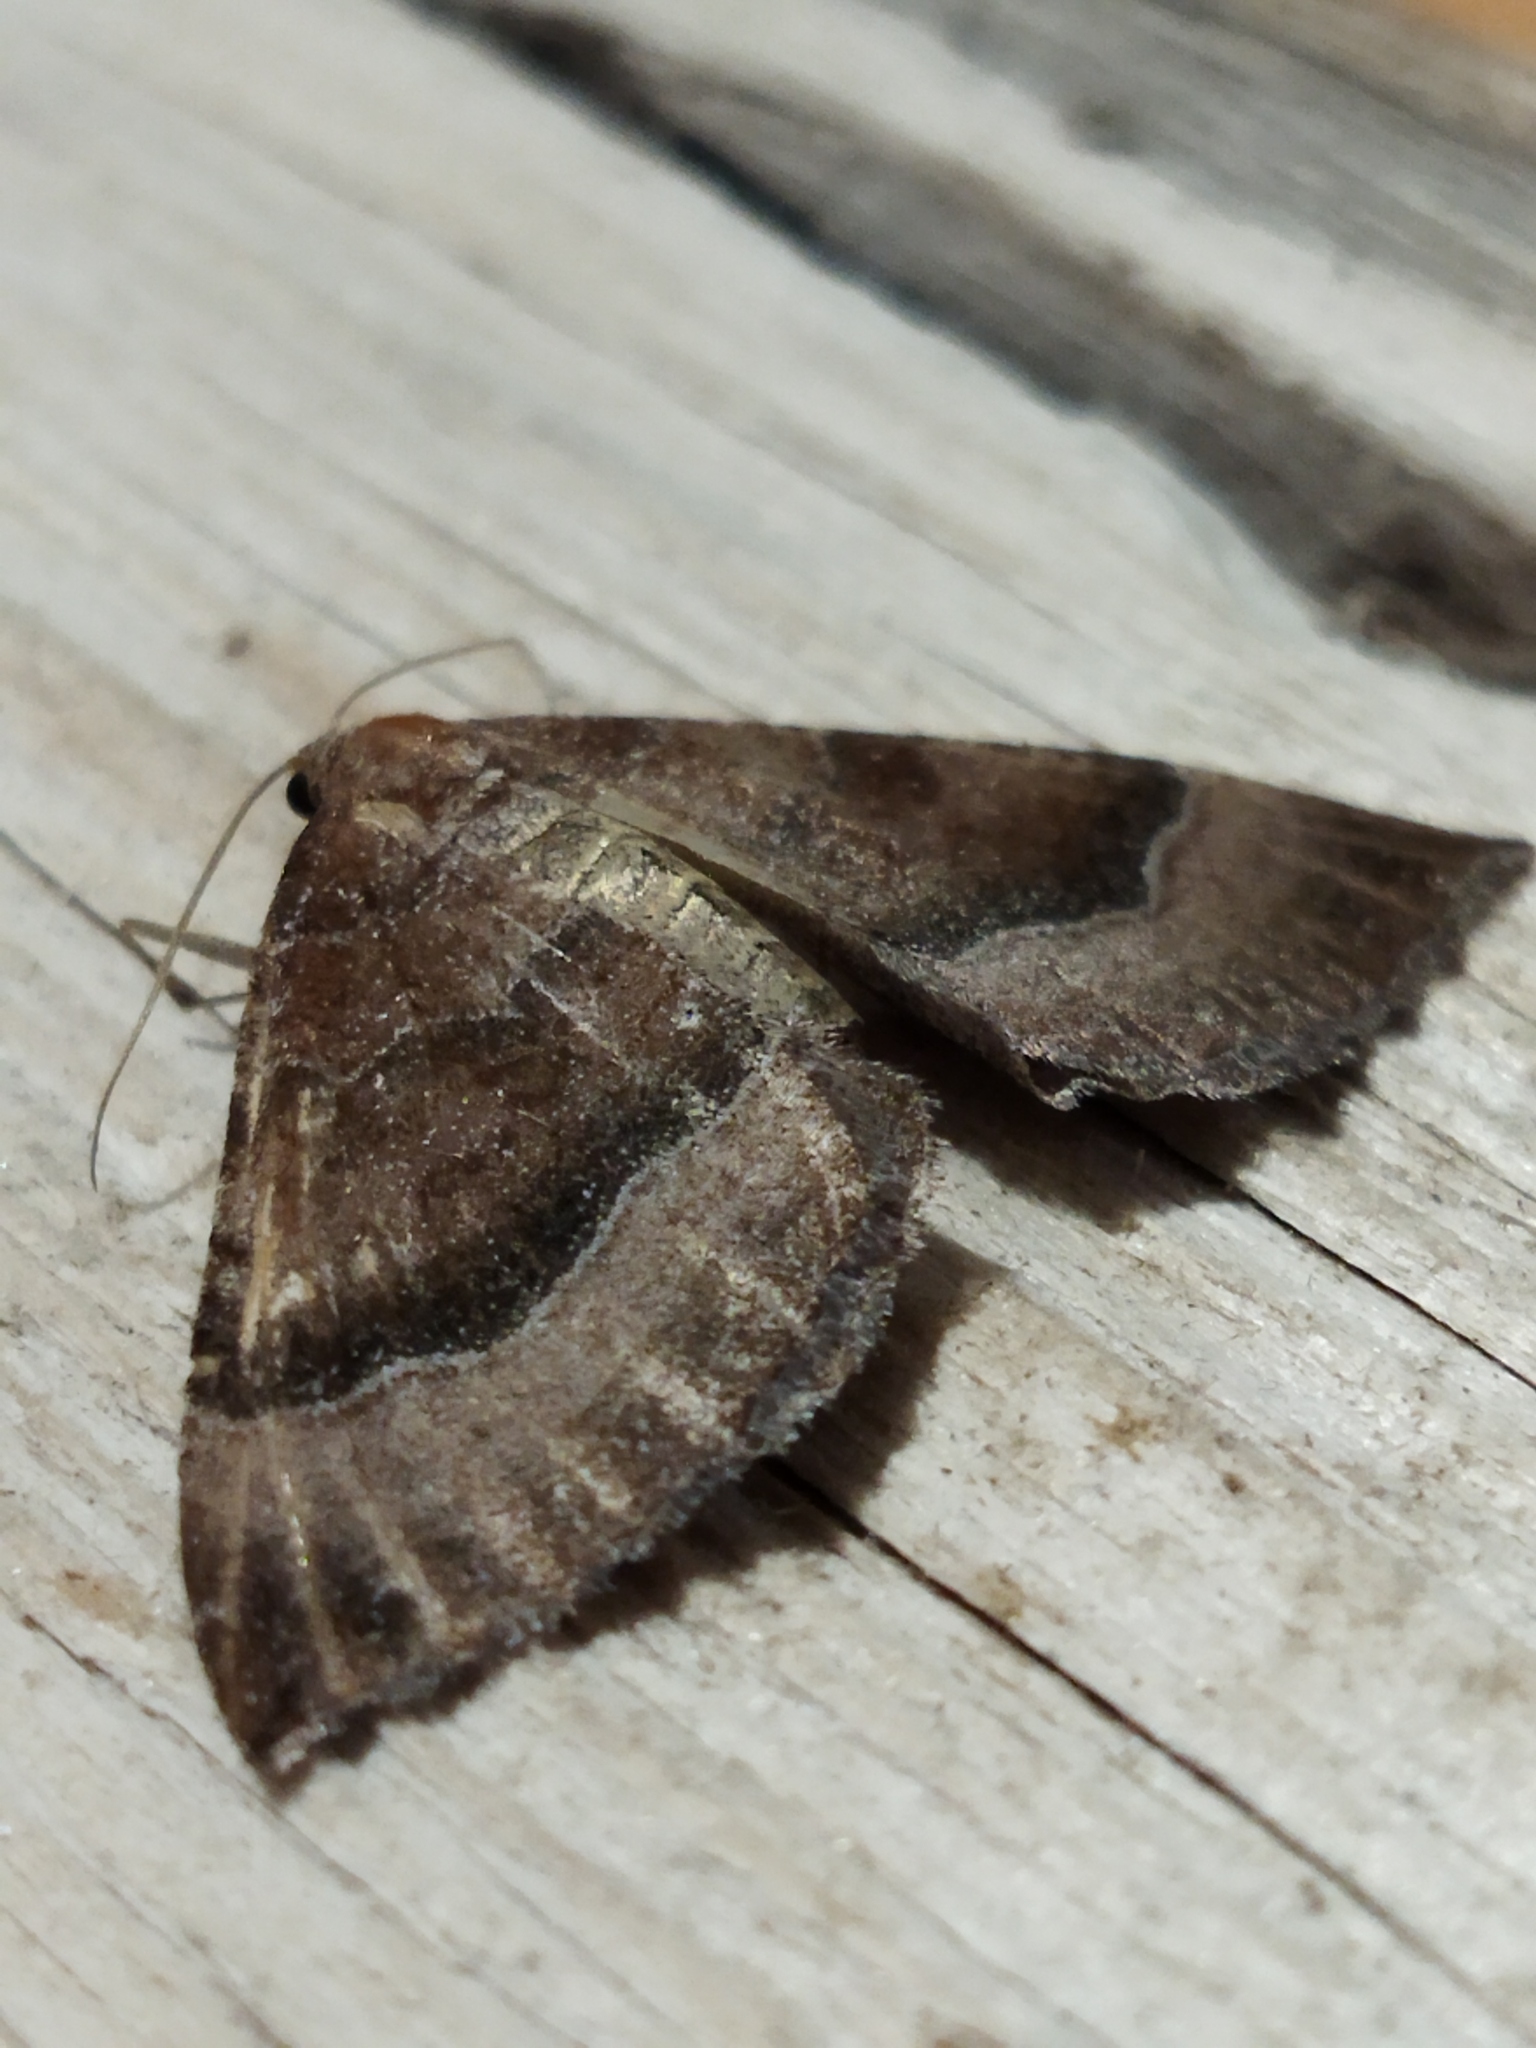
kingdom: Animalia
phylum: Arthropoda
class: Insecta
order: Lepidoptera
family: Geometridae
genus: Larentia
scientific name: Larentia clavaria
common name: Mallow
